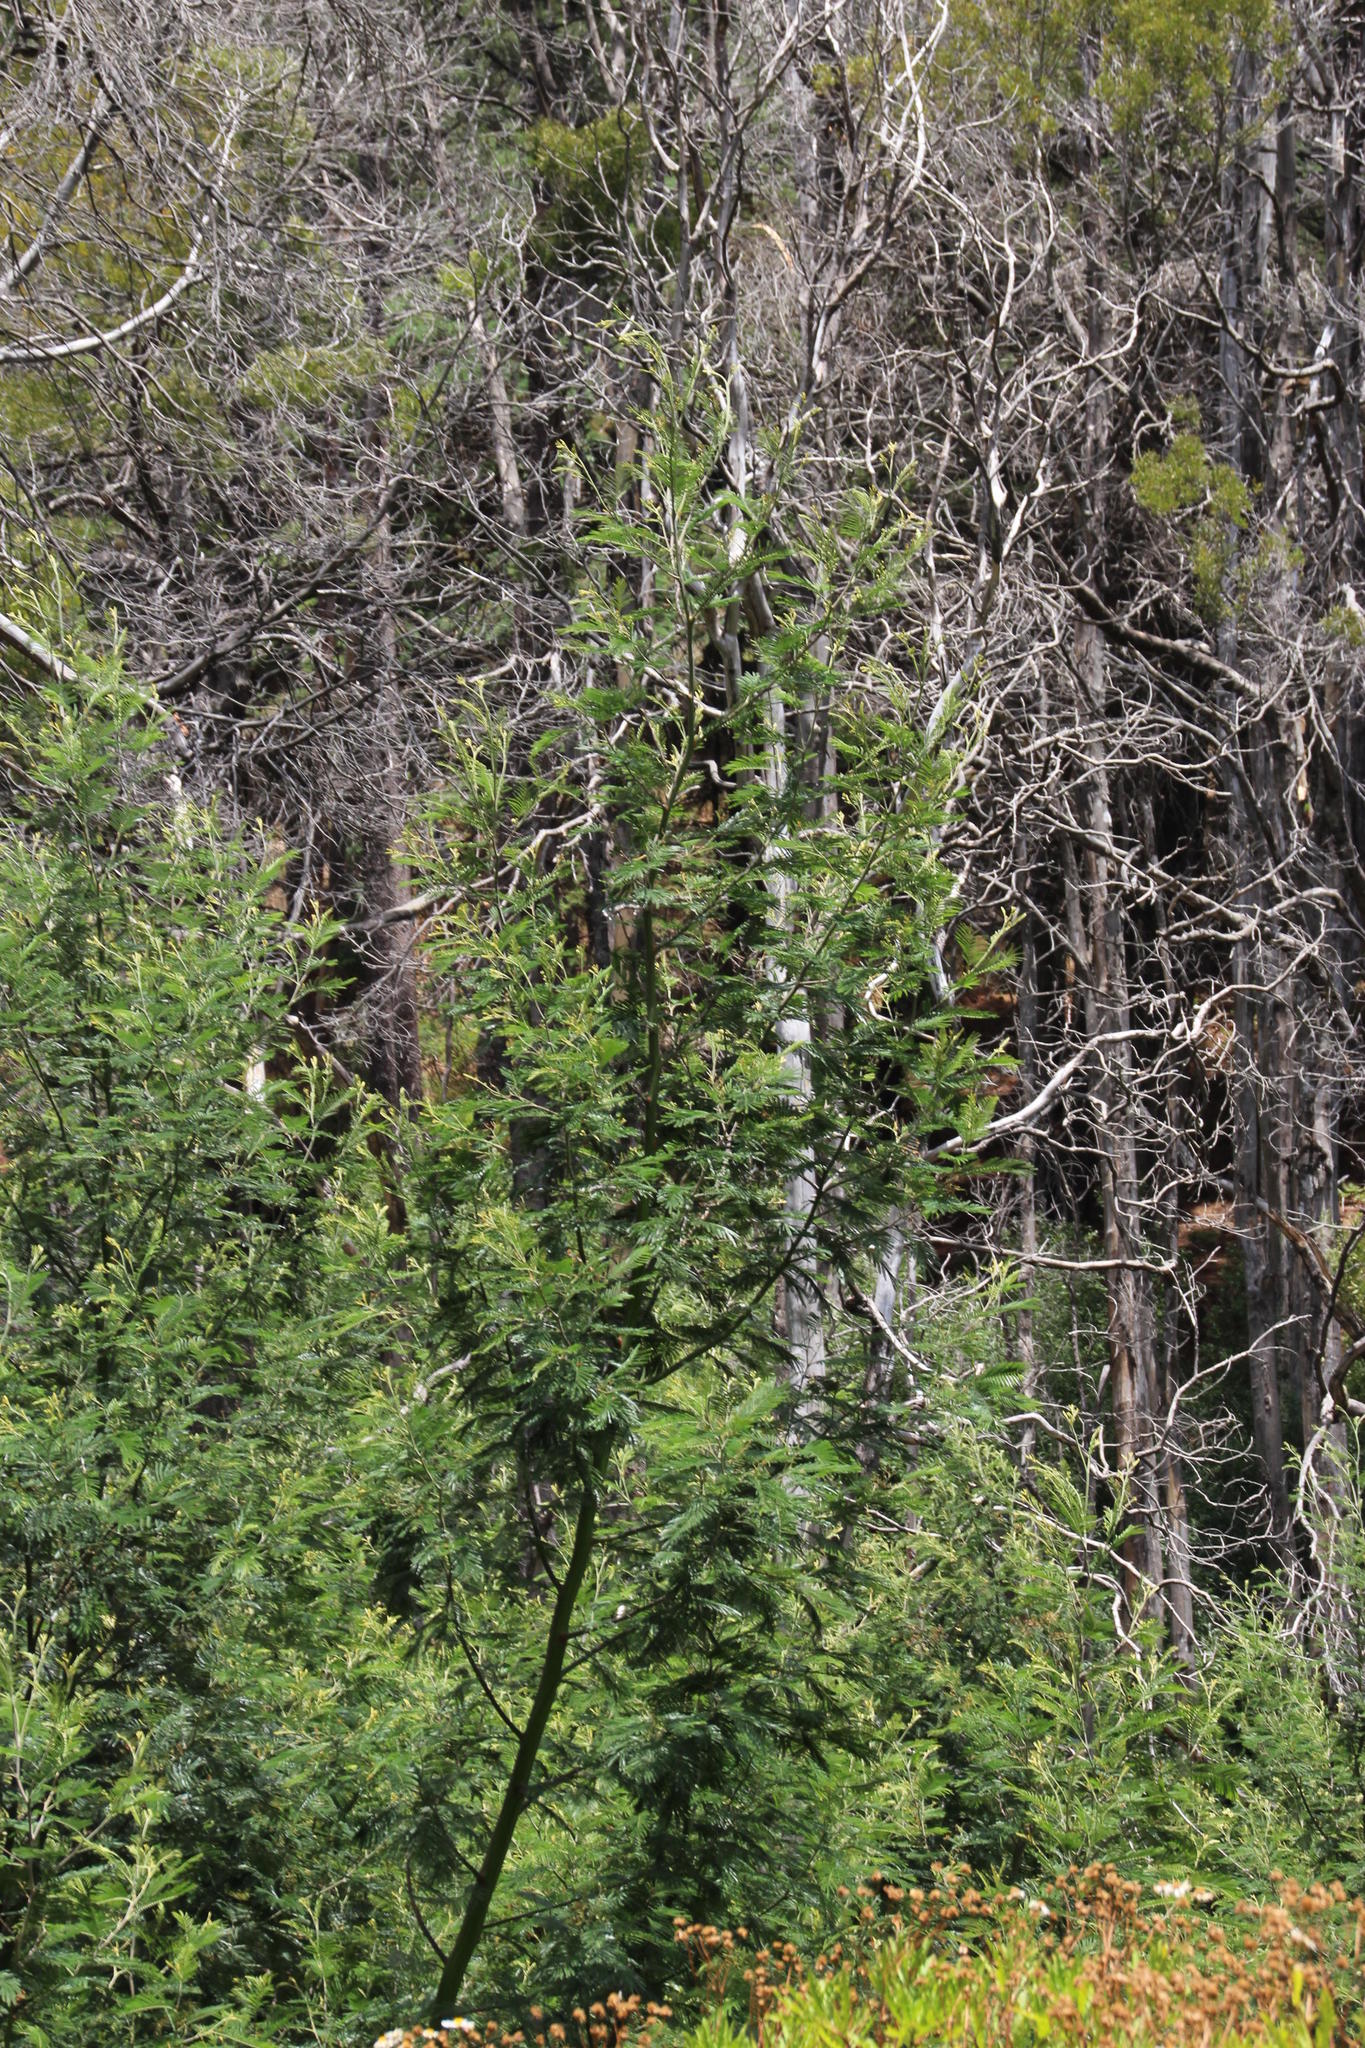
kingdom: Plantae
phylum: Tracheophyta
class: Magnoliopsida
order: Fabales
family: Fabaceae
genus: Acacia
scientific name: Acacia mearnsii
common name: Black wattle
